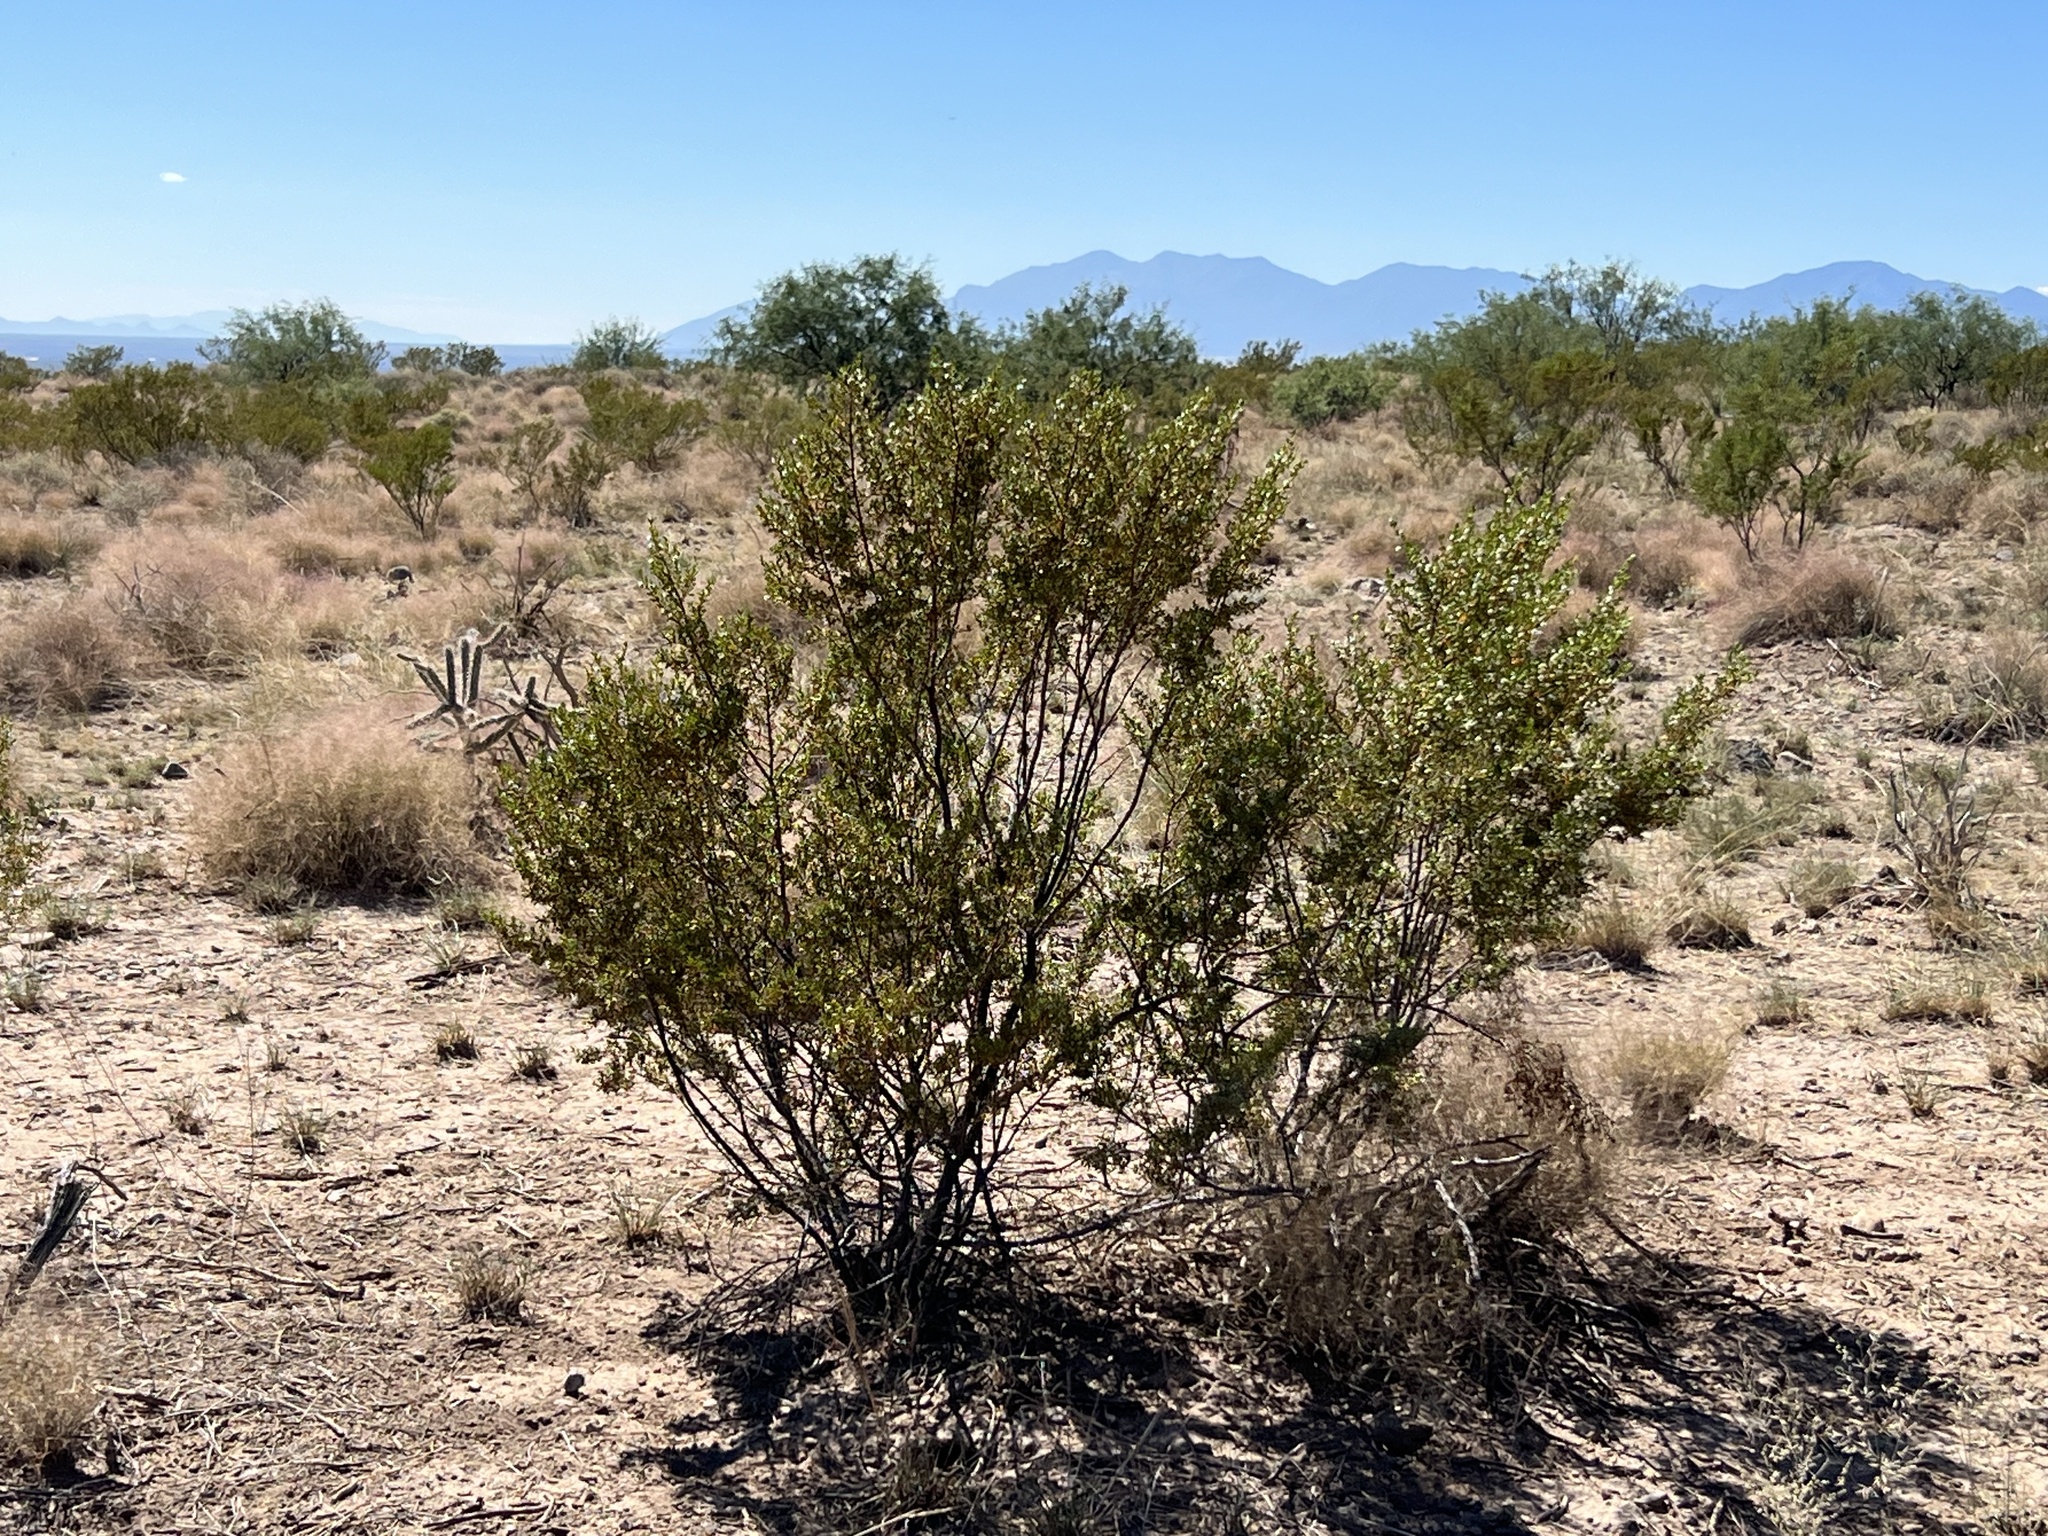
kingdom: Plantae
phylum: Tracheophyta
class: Magnoliopsida
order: Zygophyllales
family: Zygophyllaceae
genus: Larrea
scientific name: Larrea tridentata
